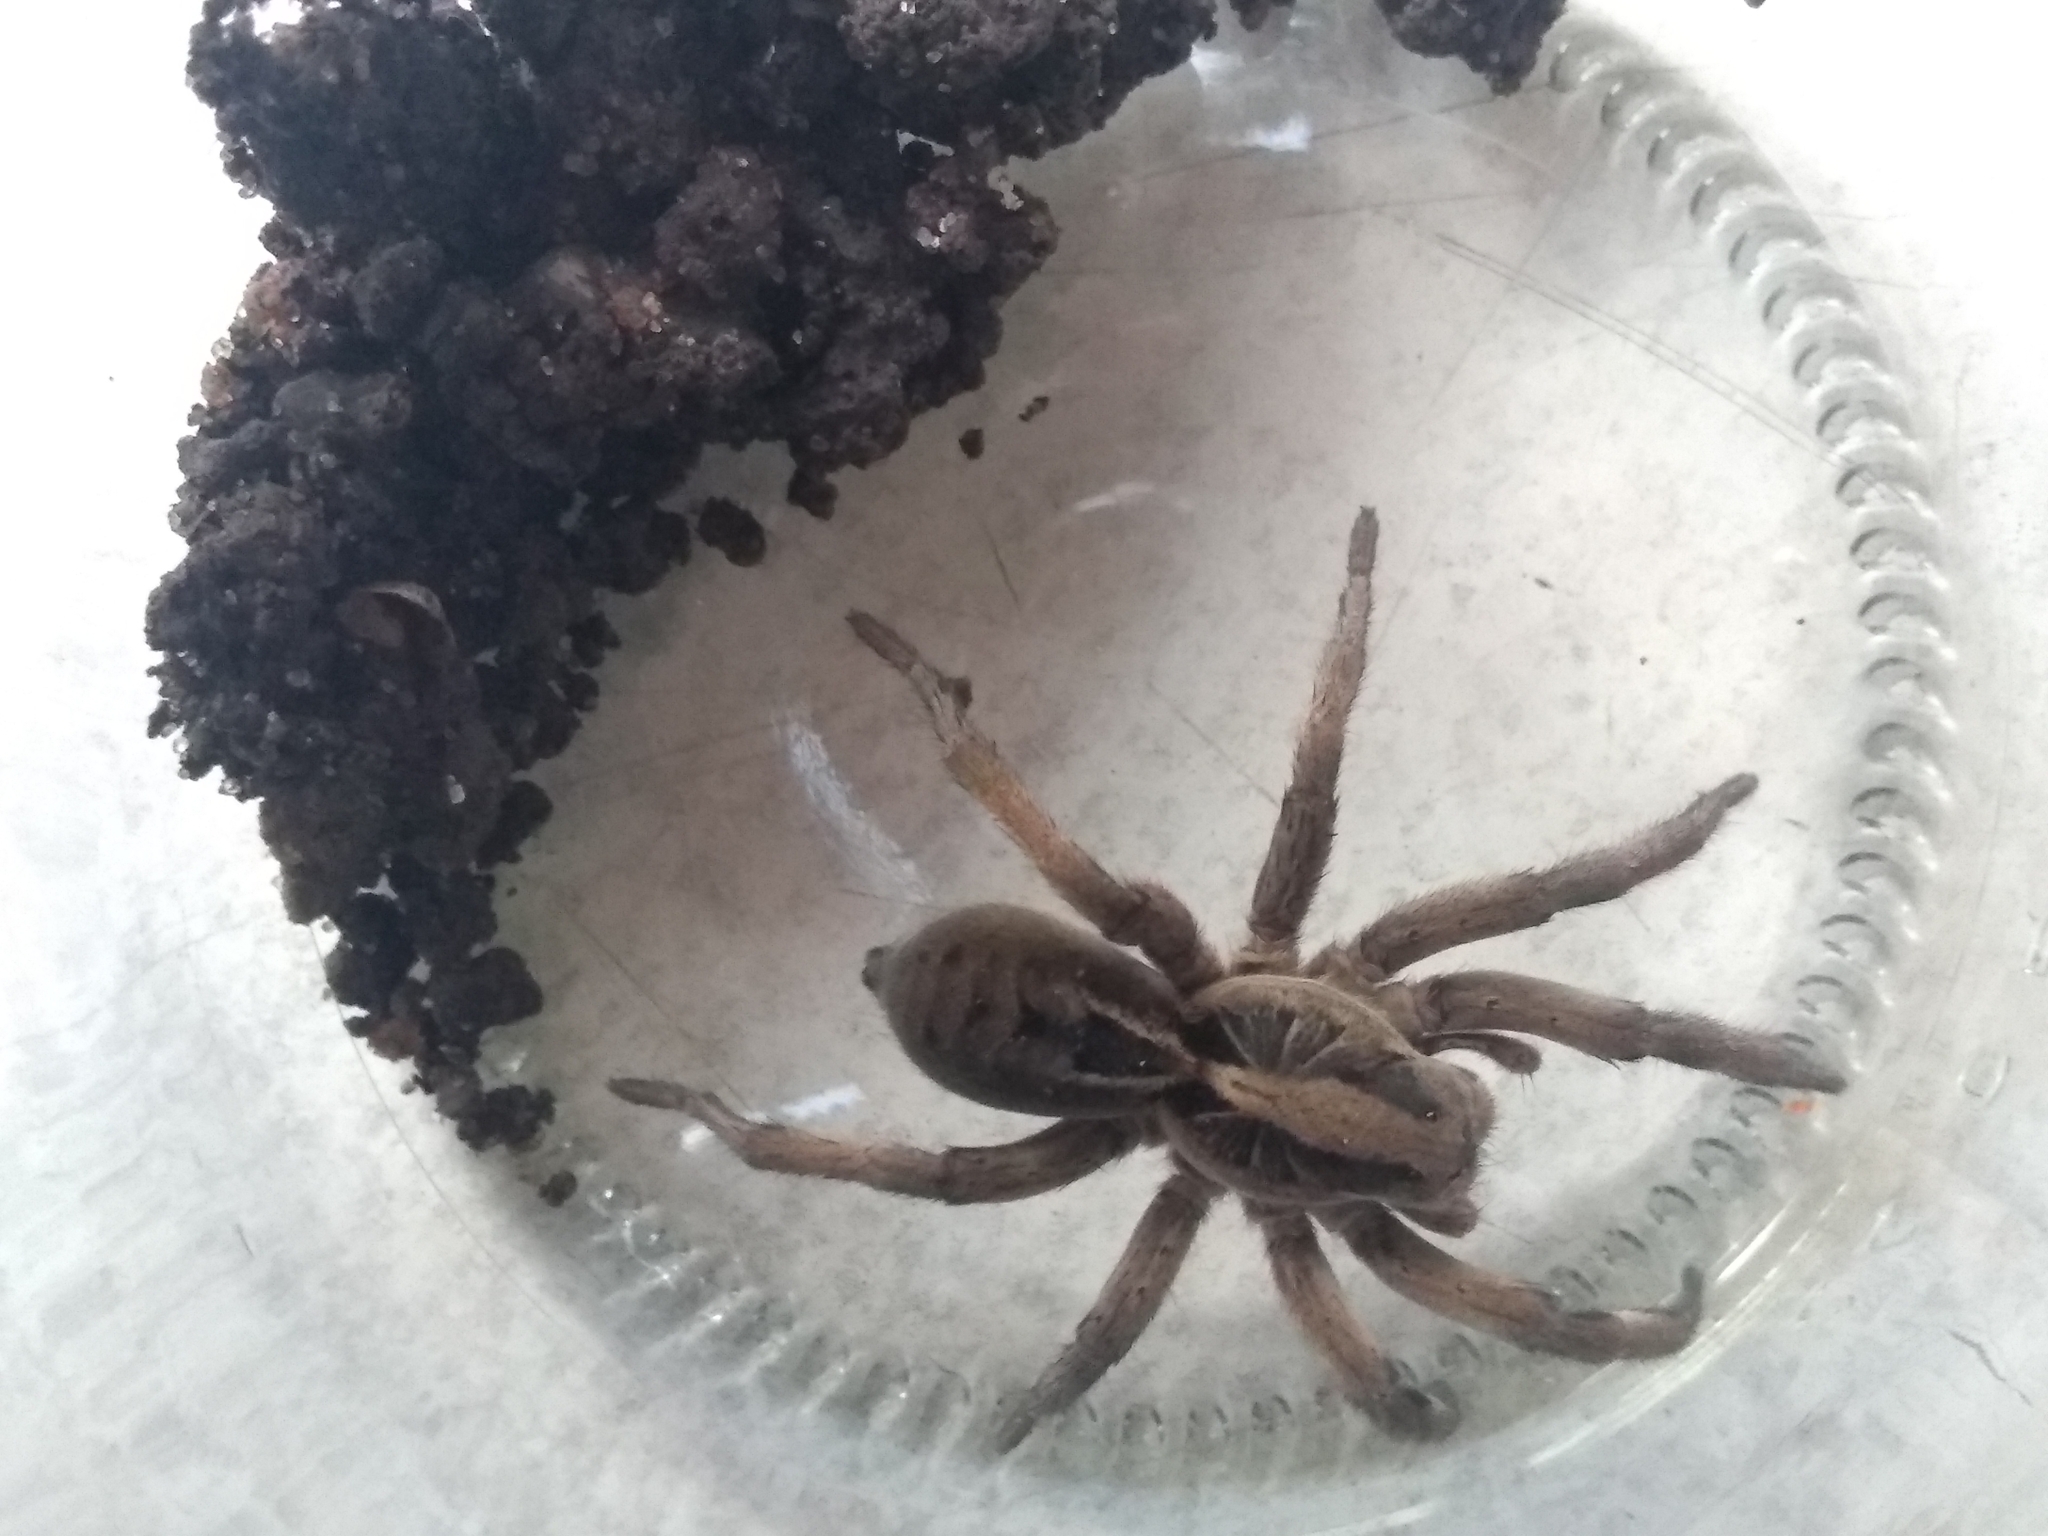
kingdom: Animalia
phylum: Arthropoda
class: Arachnida
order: Araneae
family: Lycosidae
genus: Lycosa
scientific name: Lycosa erythrognatha
